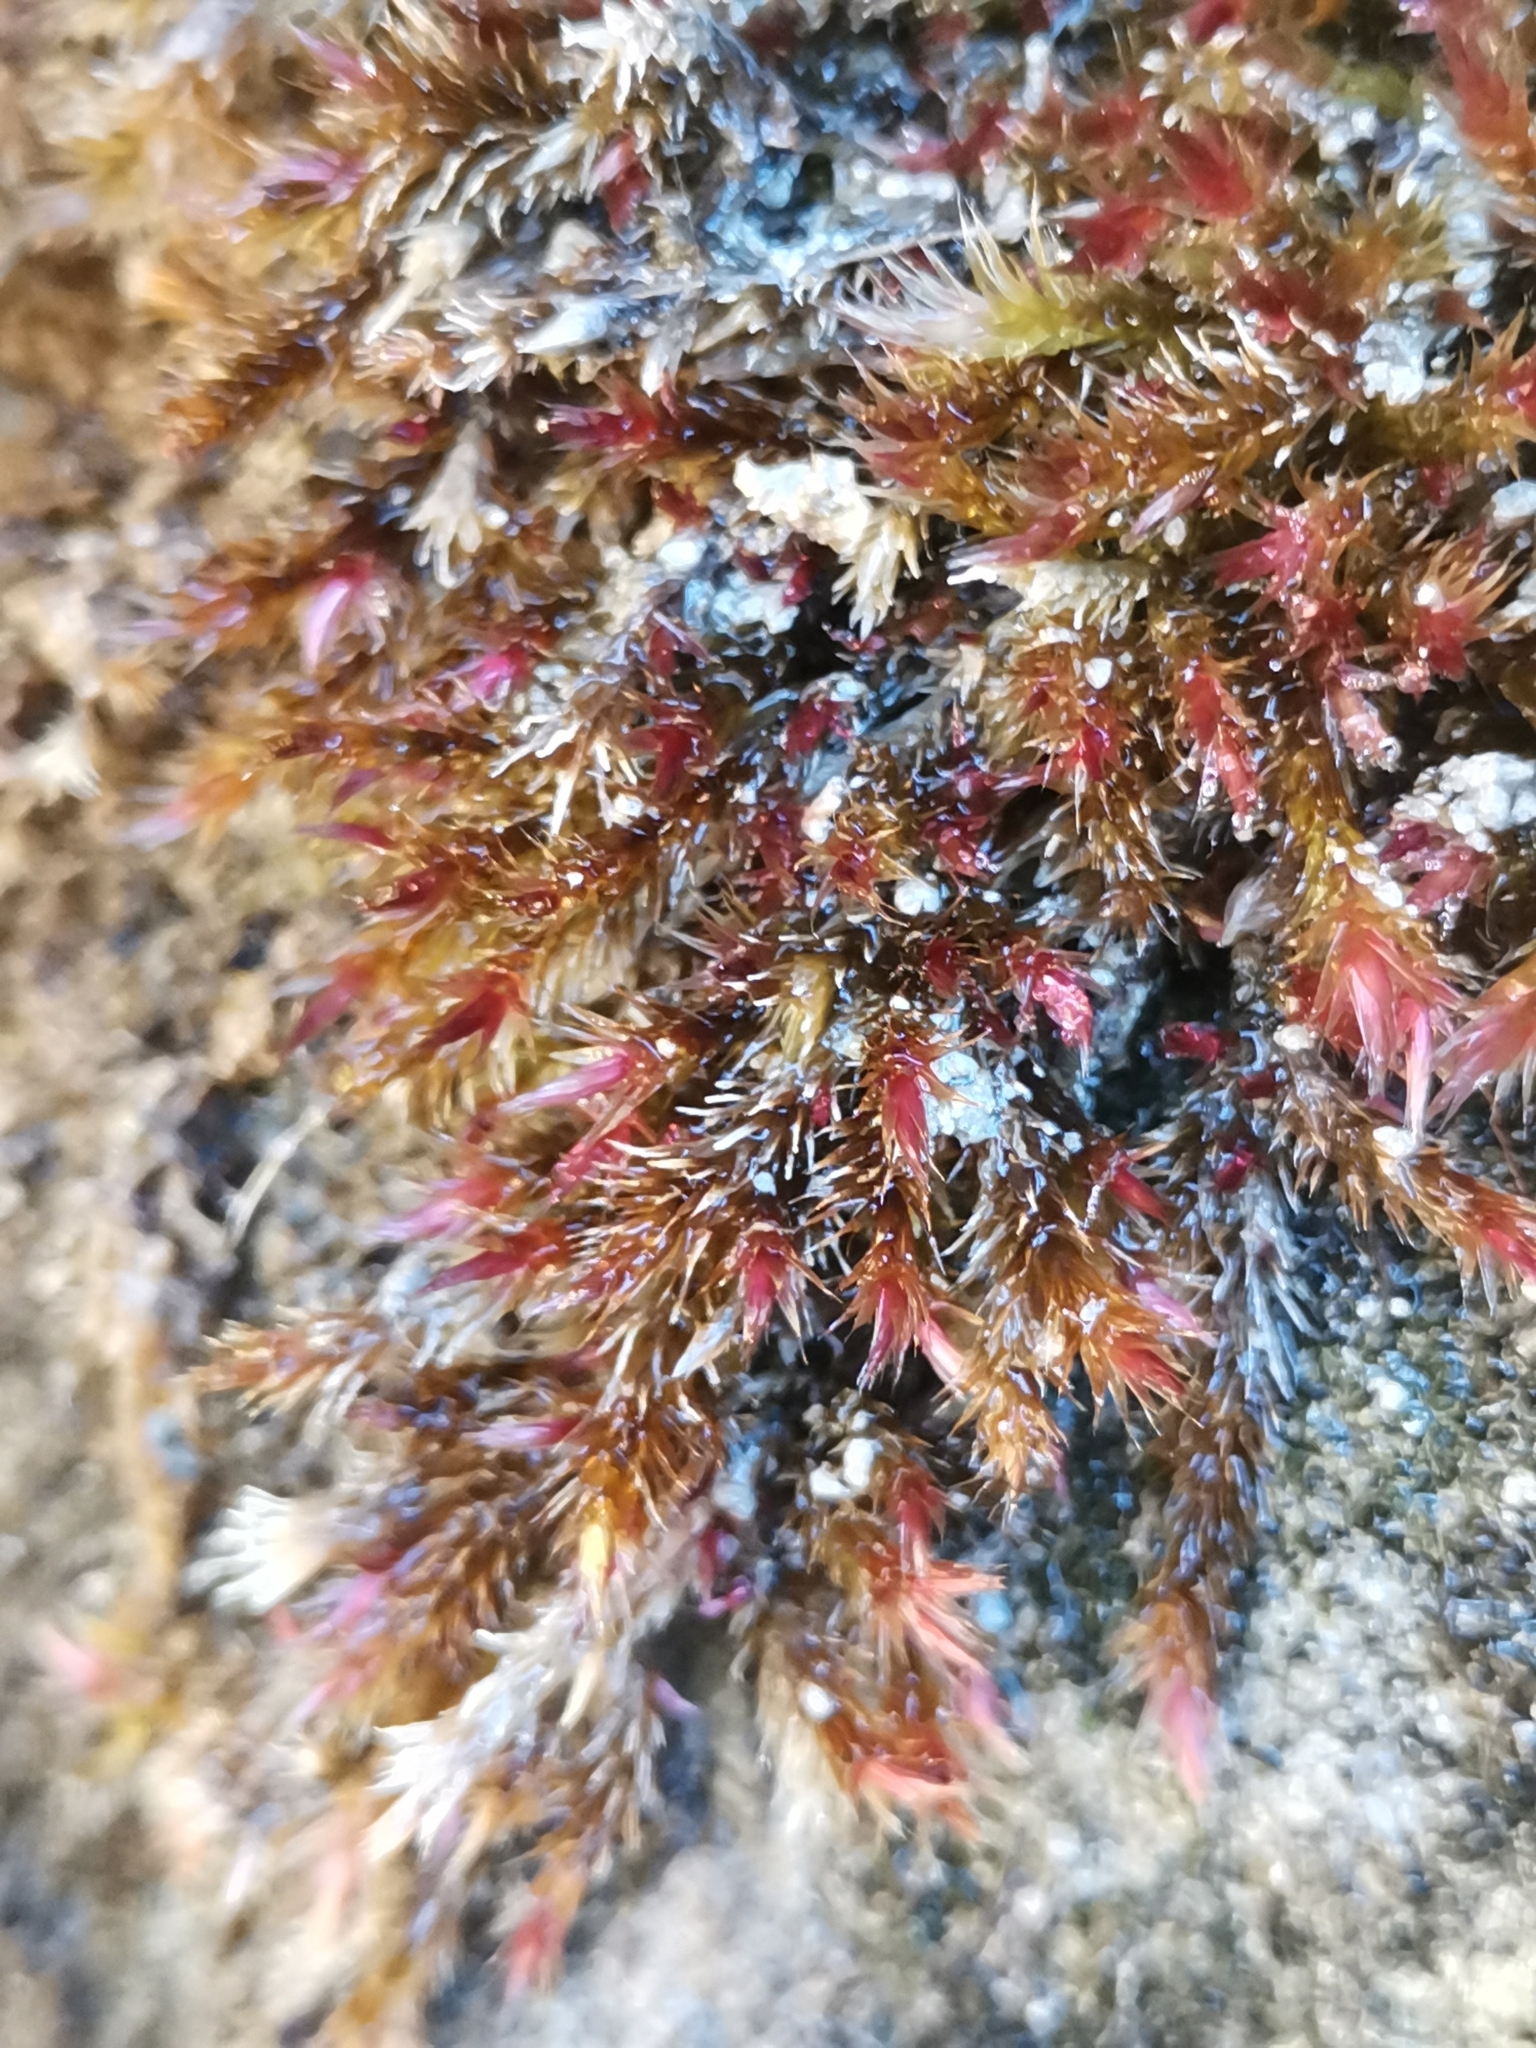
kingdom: Plantae
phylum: Bryophyta
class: Bryopsida
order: Hypnales
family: Plagiotheciaceae
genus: Orthothecium
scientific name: Orthothecium rufescens
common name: Red leskea
